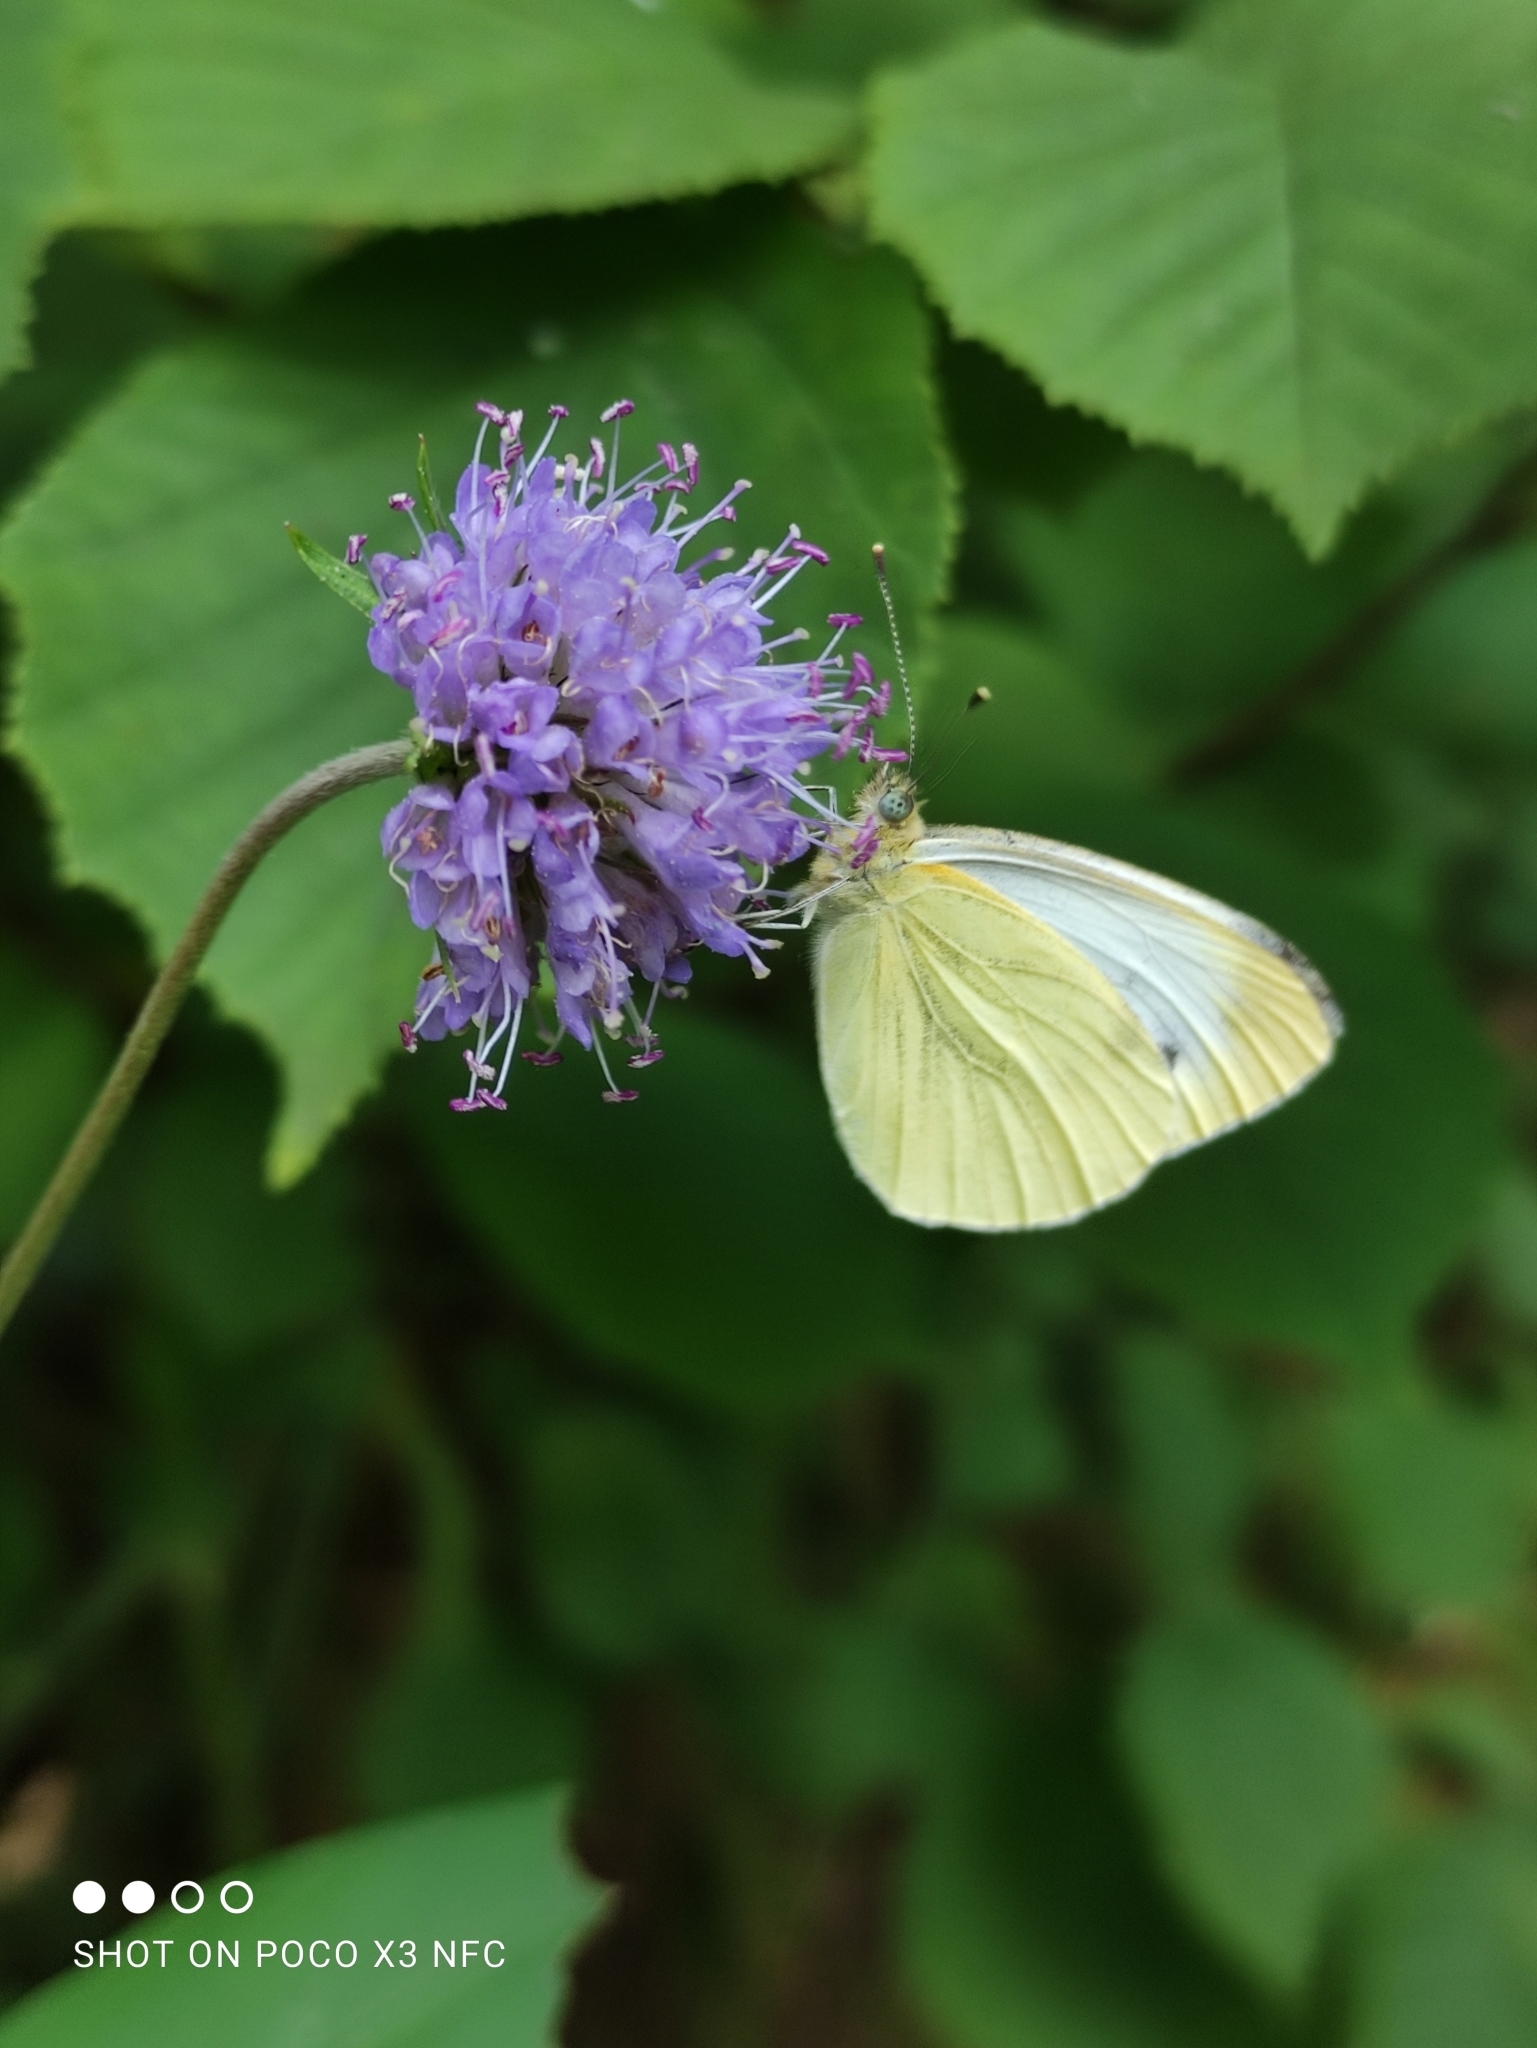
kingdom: Animalia
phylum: Arthropoda
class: Insecta
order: Lepidoptera
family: Pieridae
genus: Pieris
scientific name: Pieris napi
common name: Green-veined white
